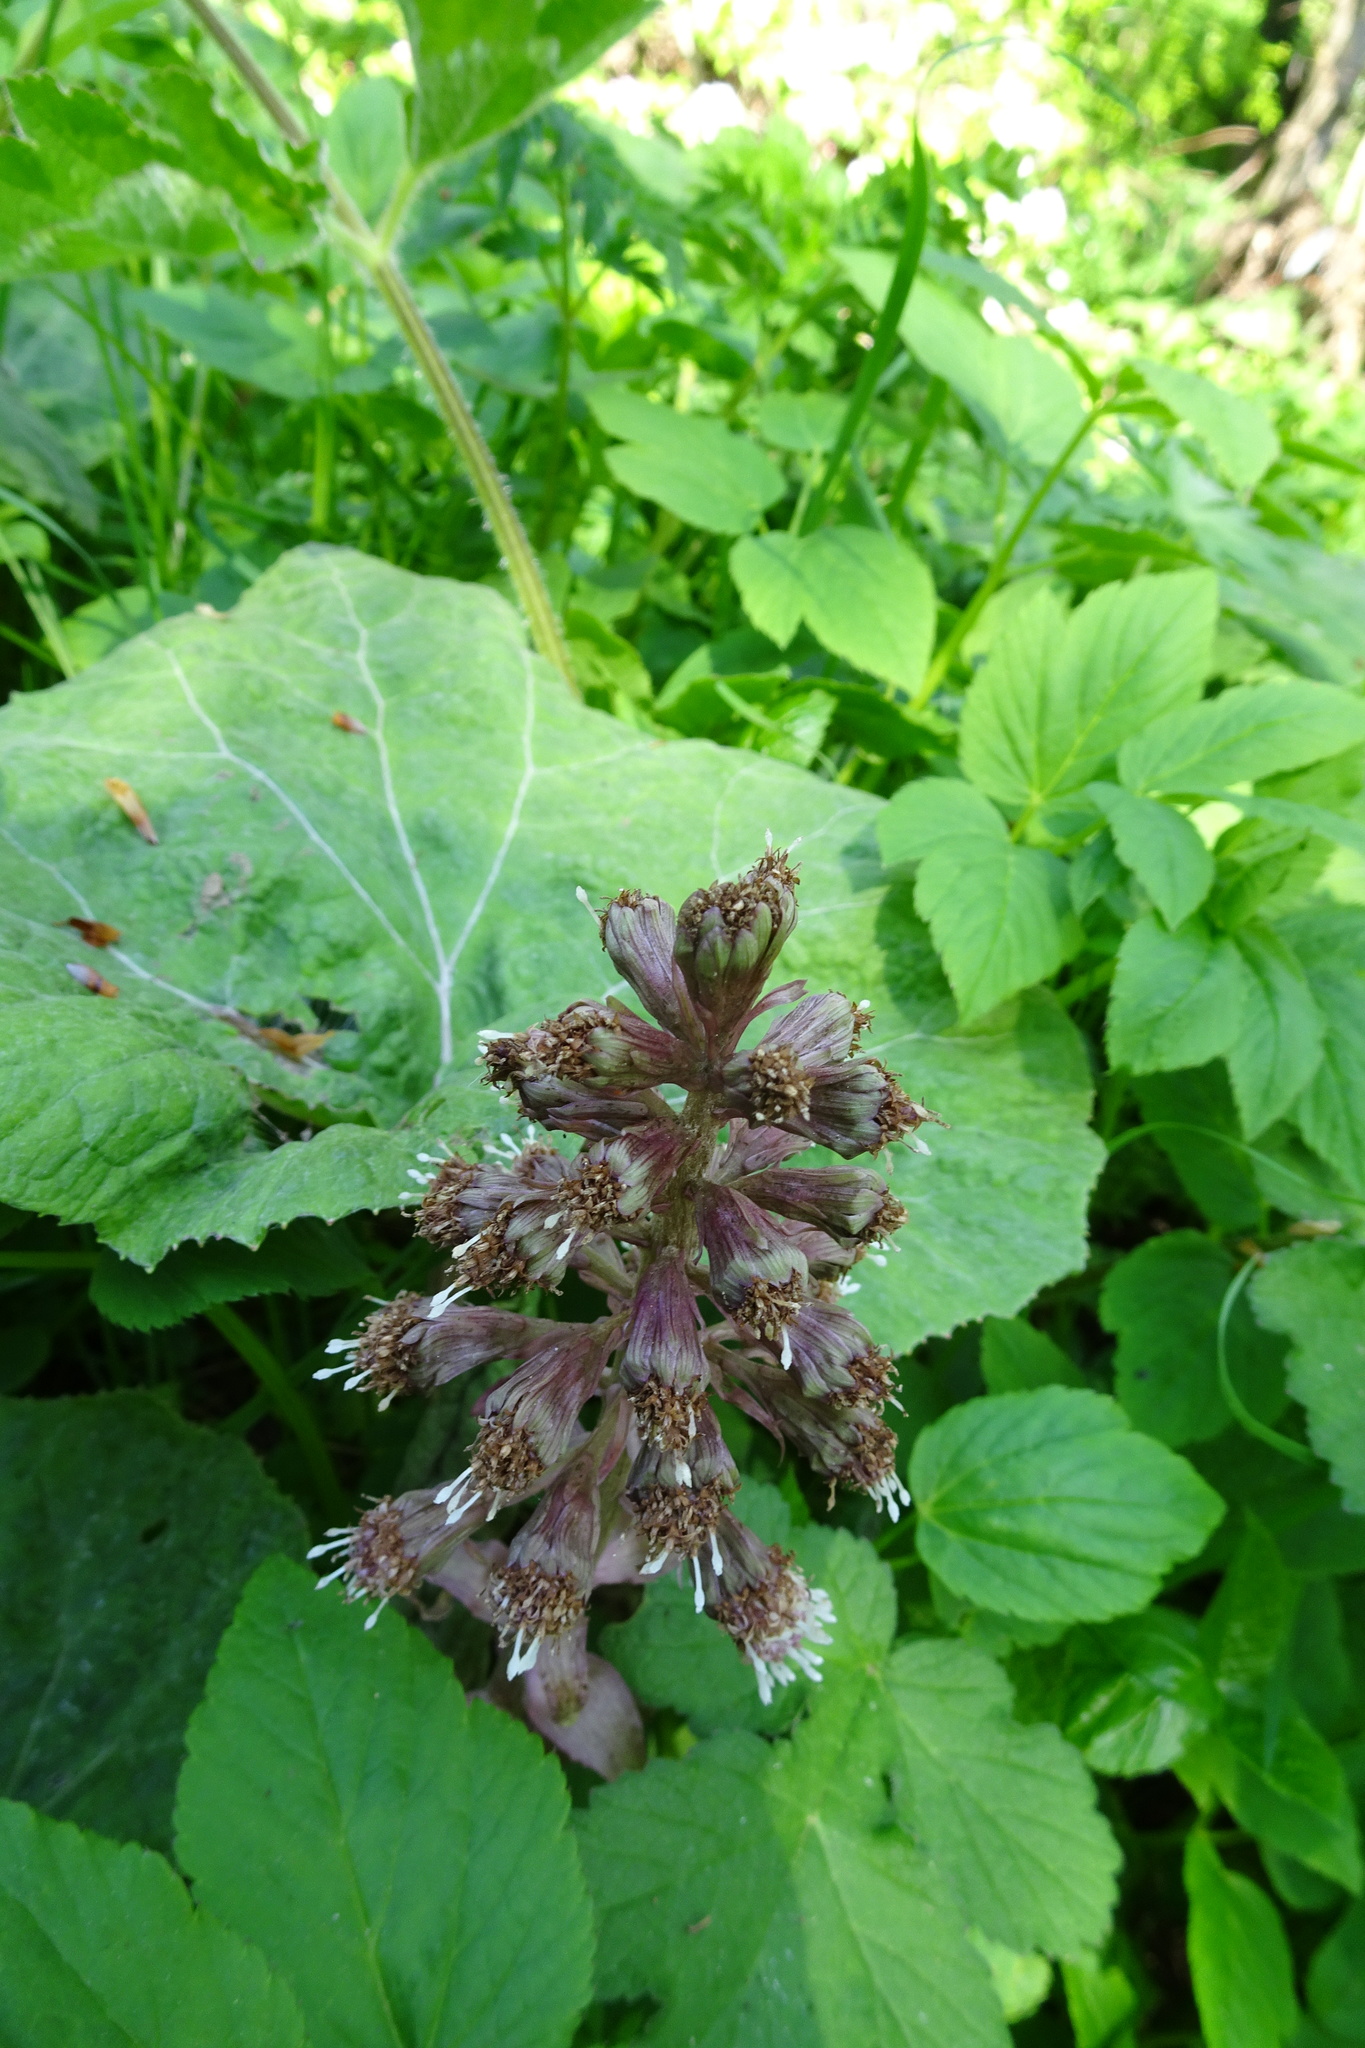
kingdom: Plantae
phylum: Tracheophyta
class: Magnoliopsida
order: Asterales
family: Asteraceae
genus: Petasites
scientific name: Petasites hybridus
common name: Butterbur
